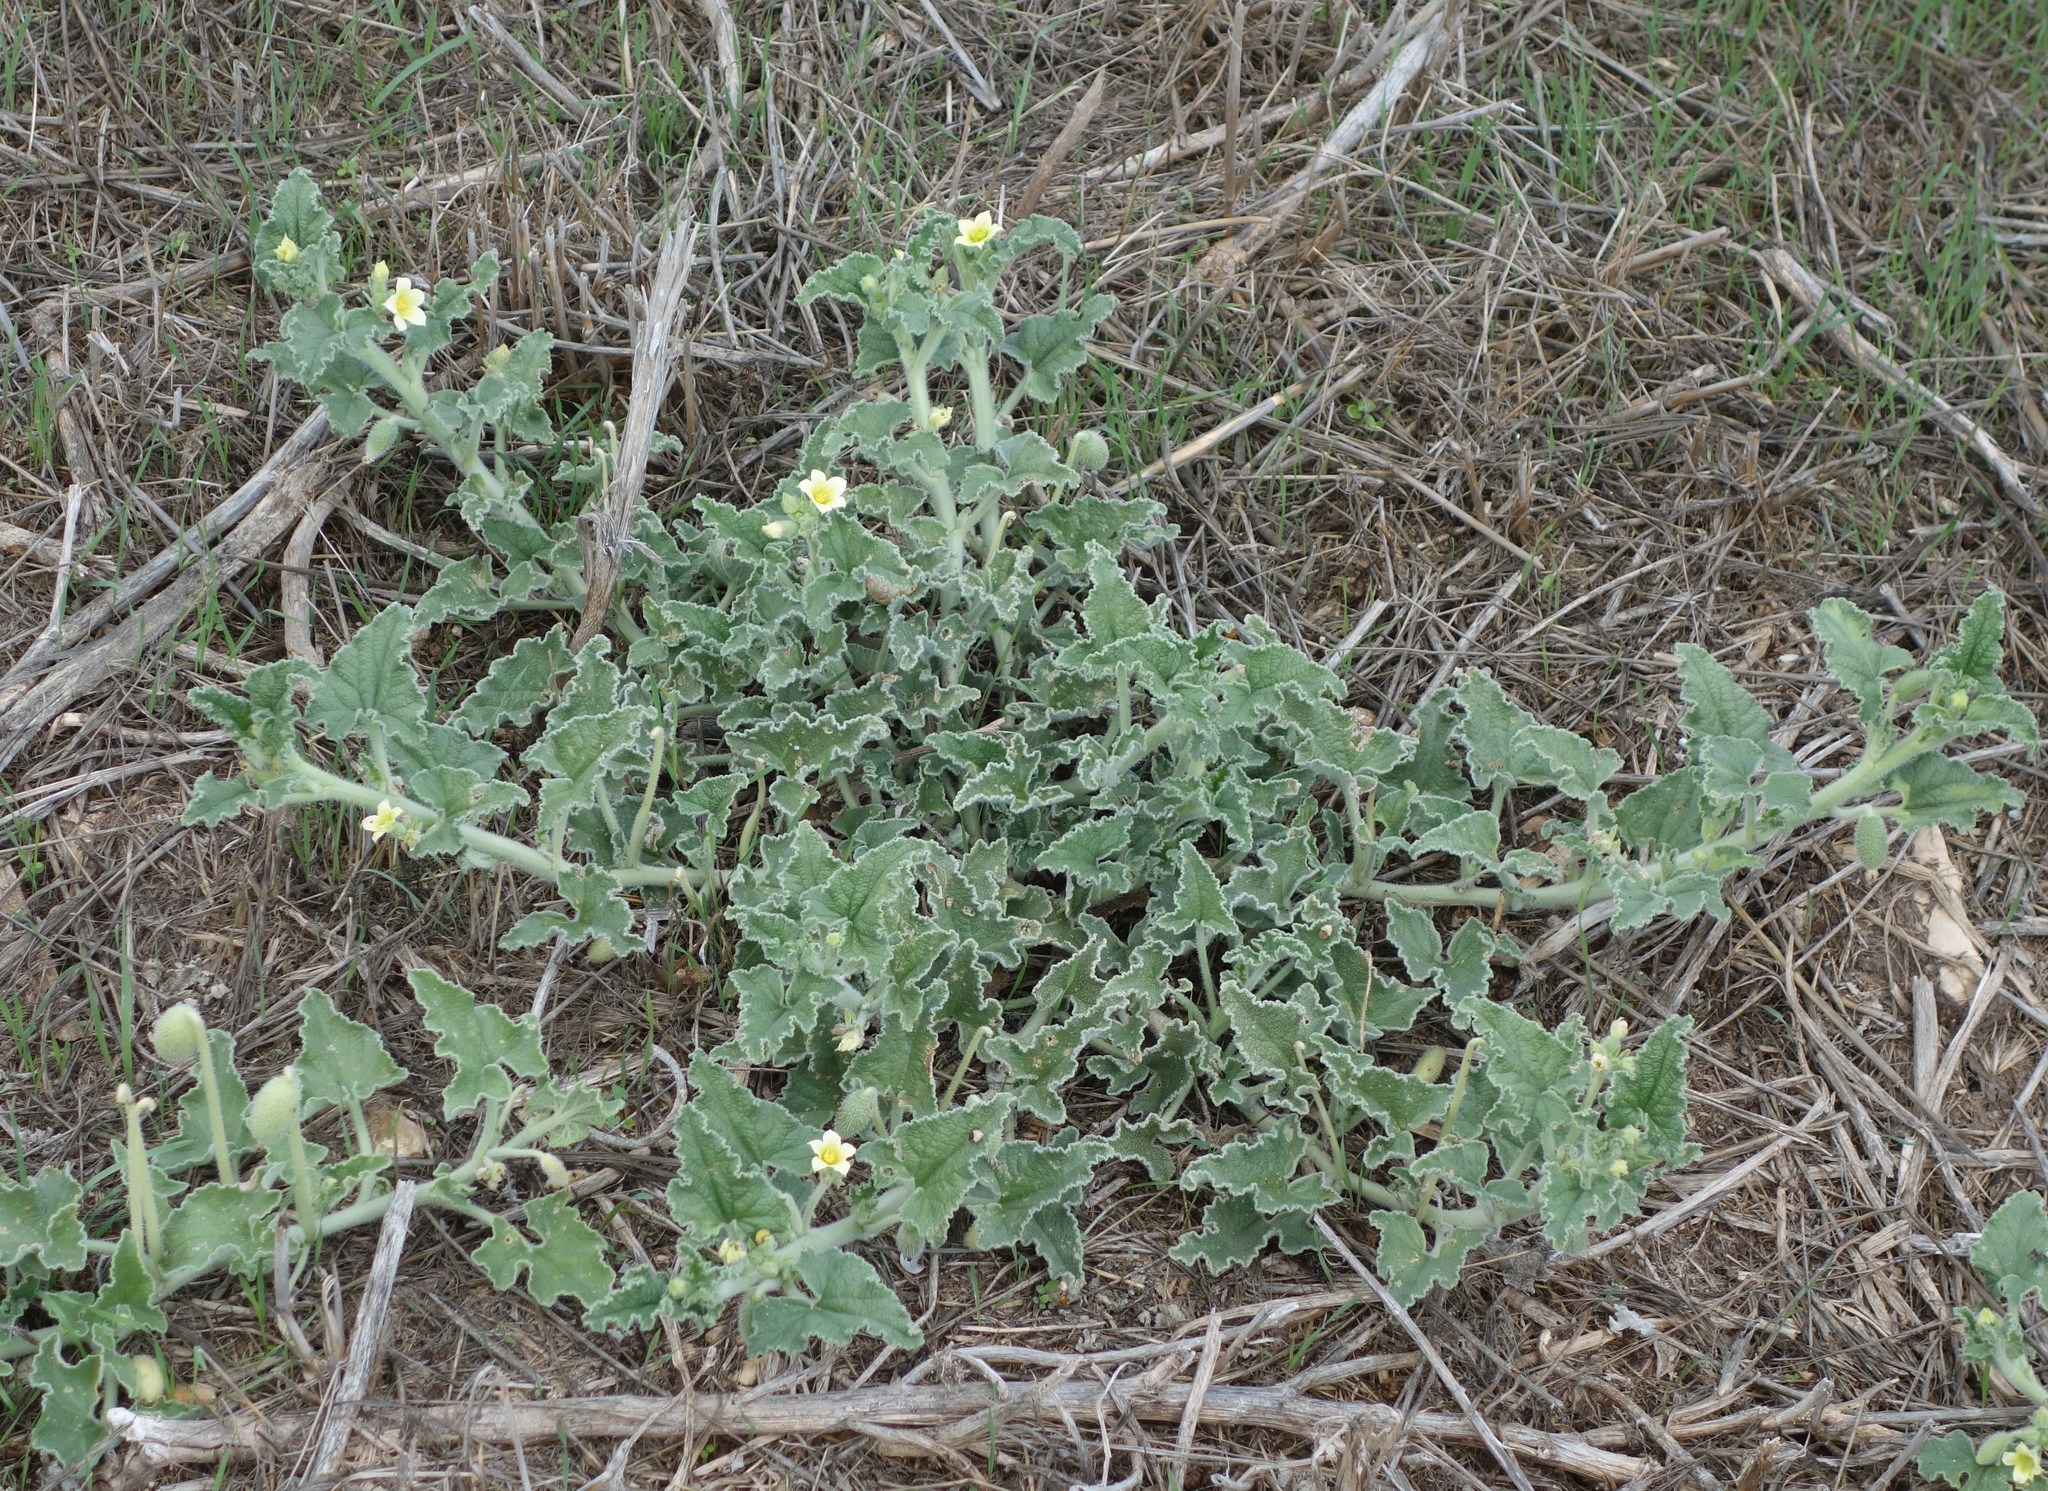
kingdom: Plantae
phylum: Tracheophyta
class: Magnoliopsida
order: Cucurbitales
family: Cucurbitaceae
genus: Ecballium
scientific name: Ecballium elaterium
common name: Squirting cucumber
